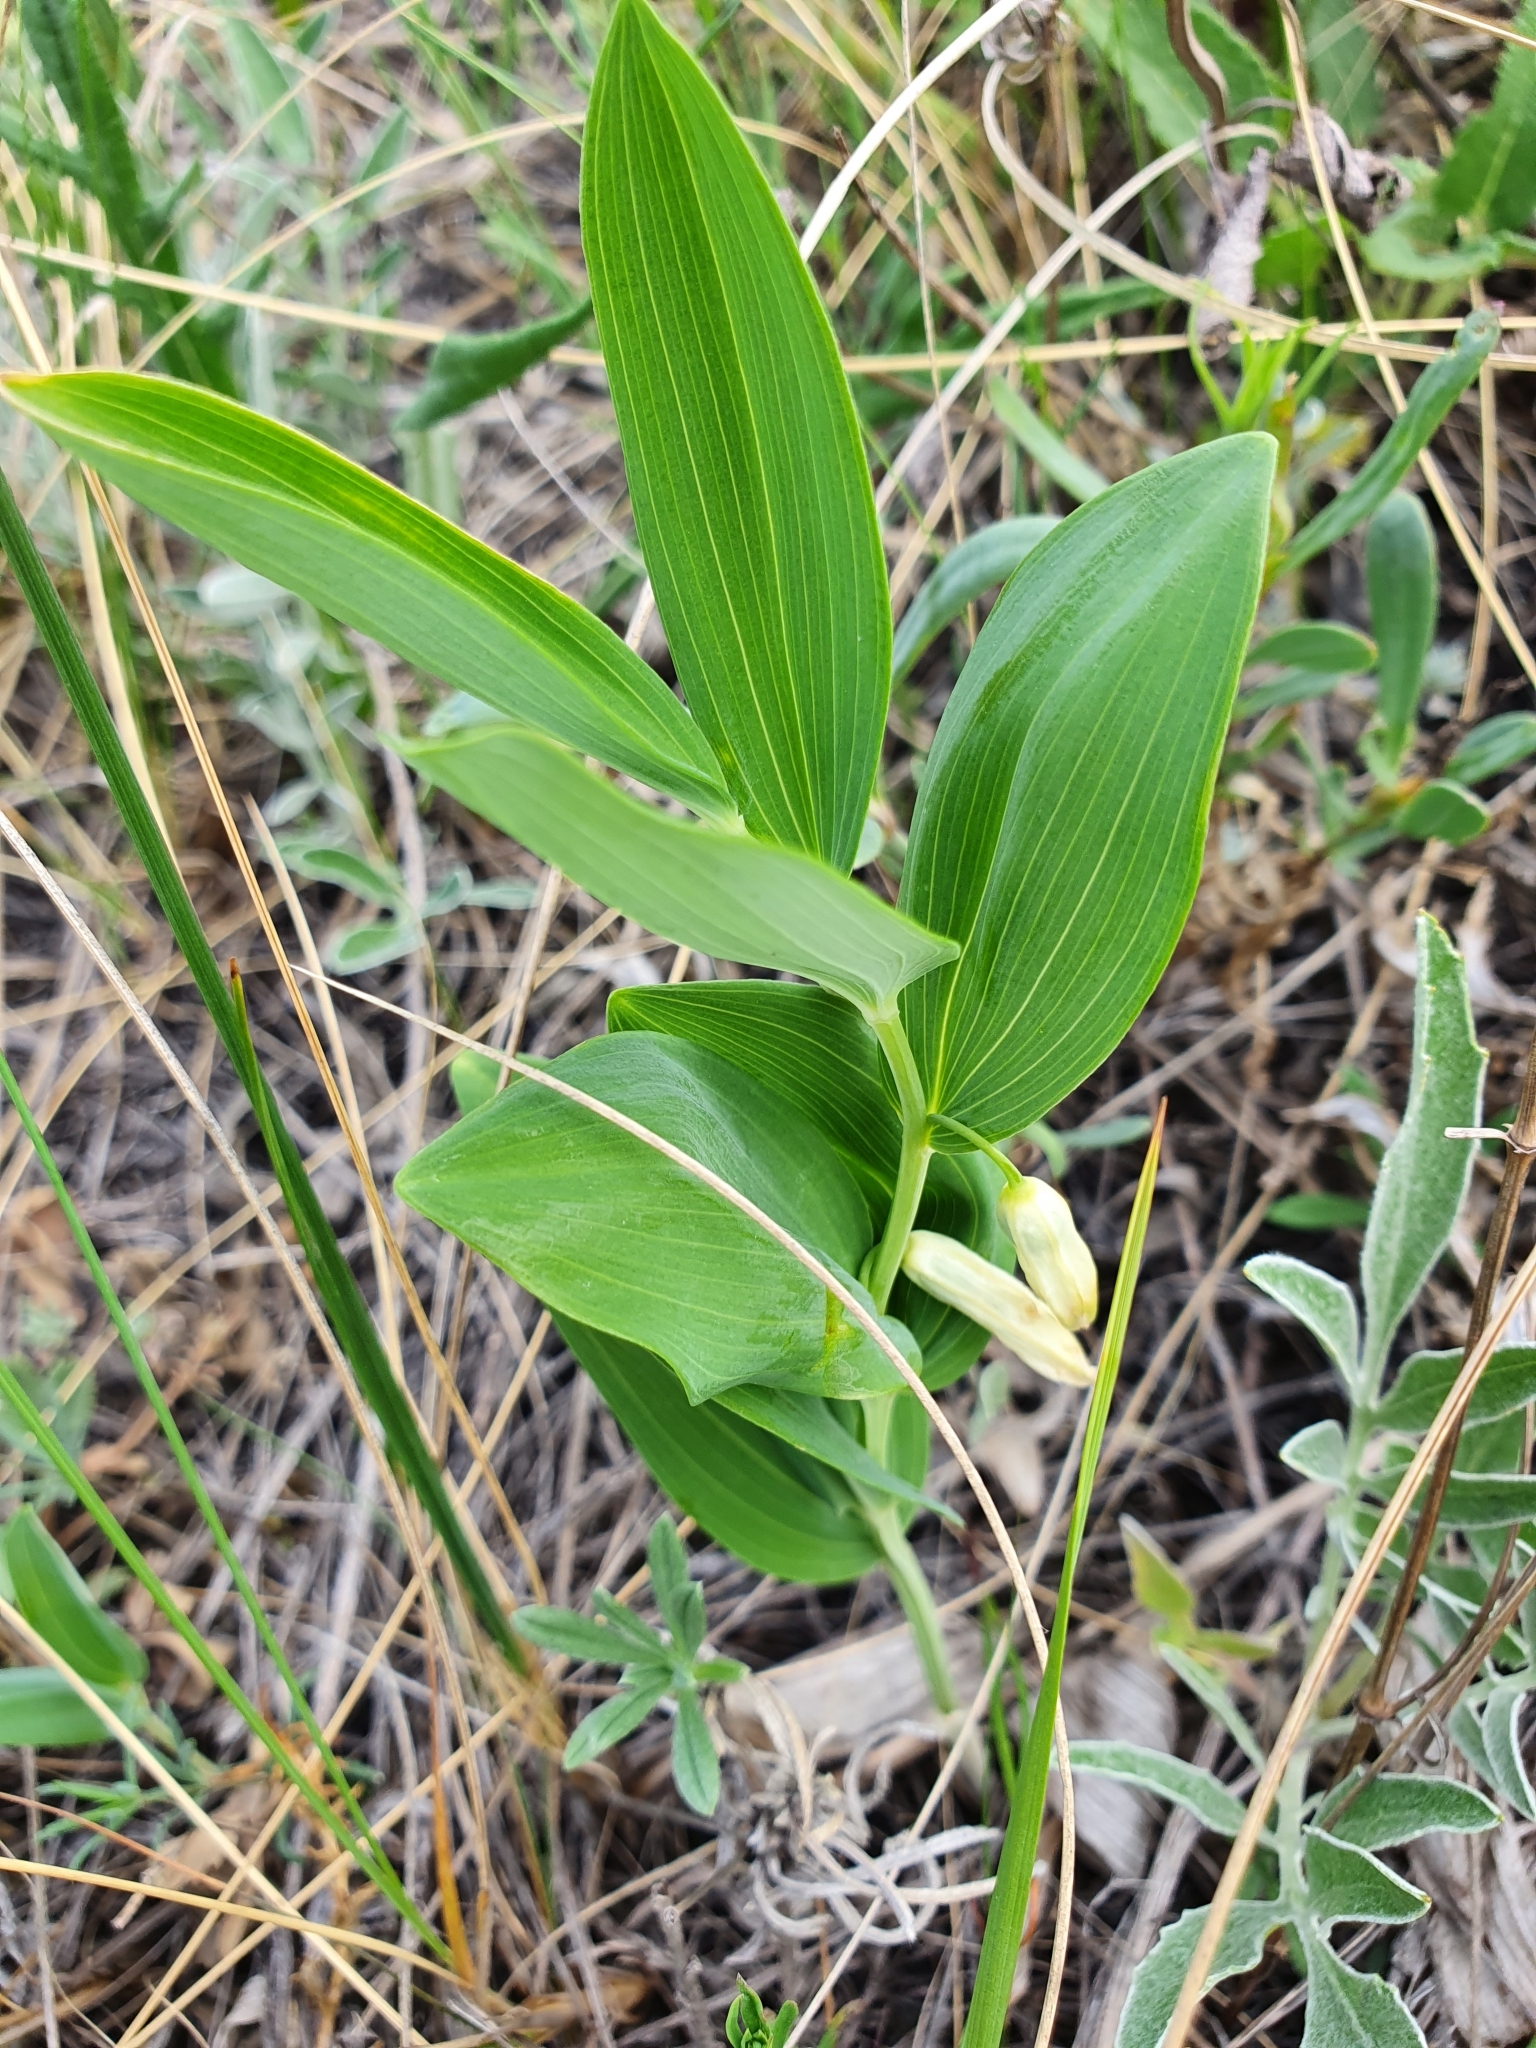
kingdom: Plantae
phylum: Tracheophyta
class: Liliopsida
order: Asparagales
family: Asparagaceae
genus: Polygonatum
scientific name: Polygonatum odoratum
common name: Angular solomon's-seal
